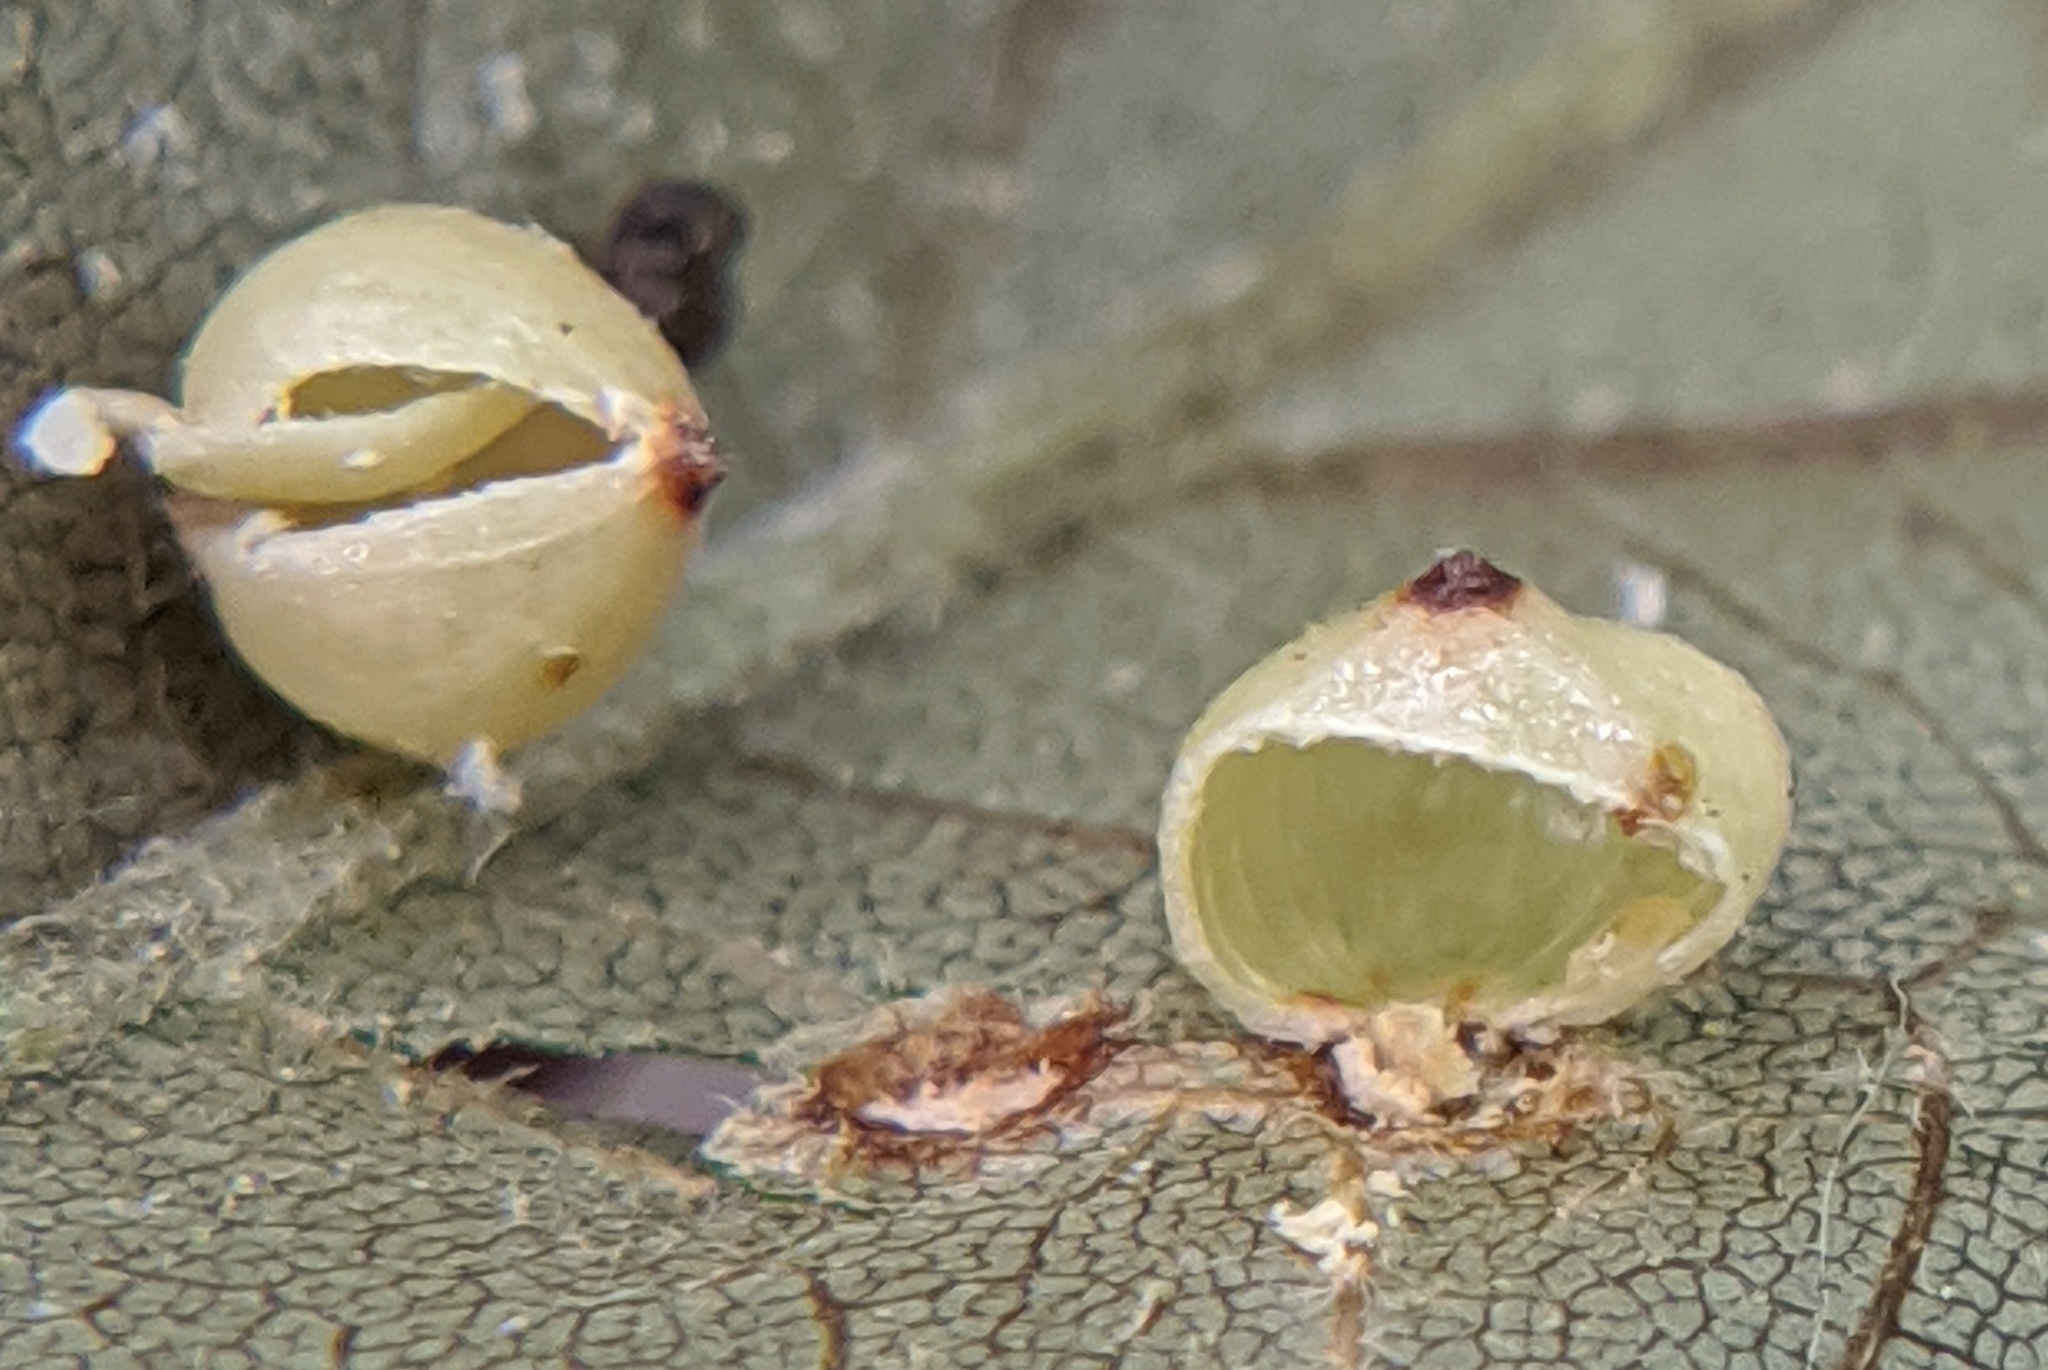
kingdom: Animalia
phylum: Arthropoda
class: Insecta
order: Diptera
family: Cecidomyiidae
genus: Caryomyia
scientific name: Caryomyia caryae
